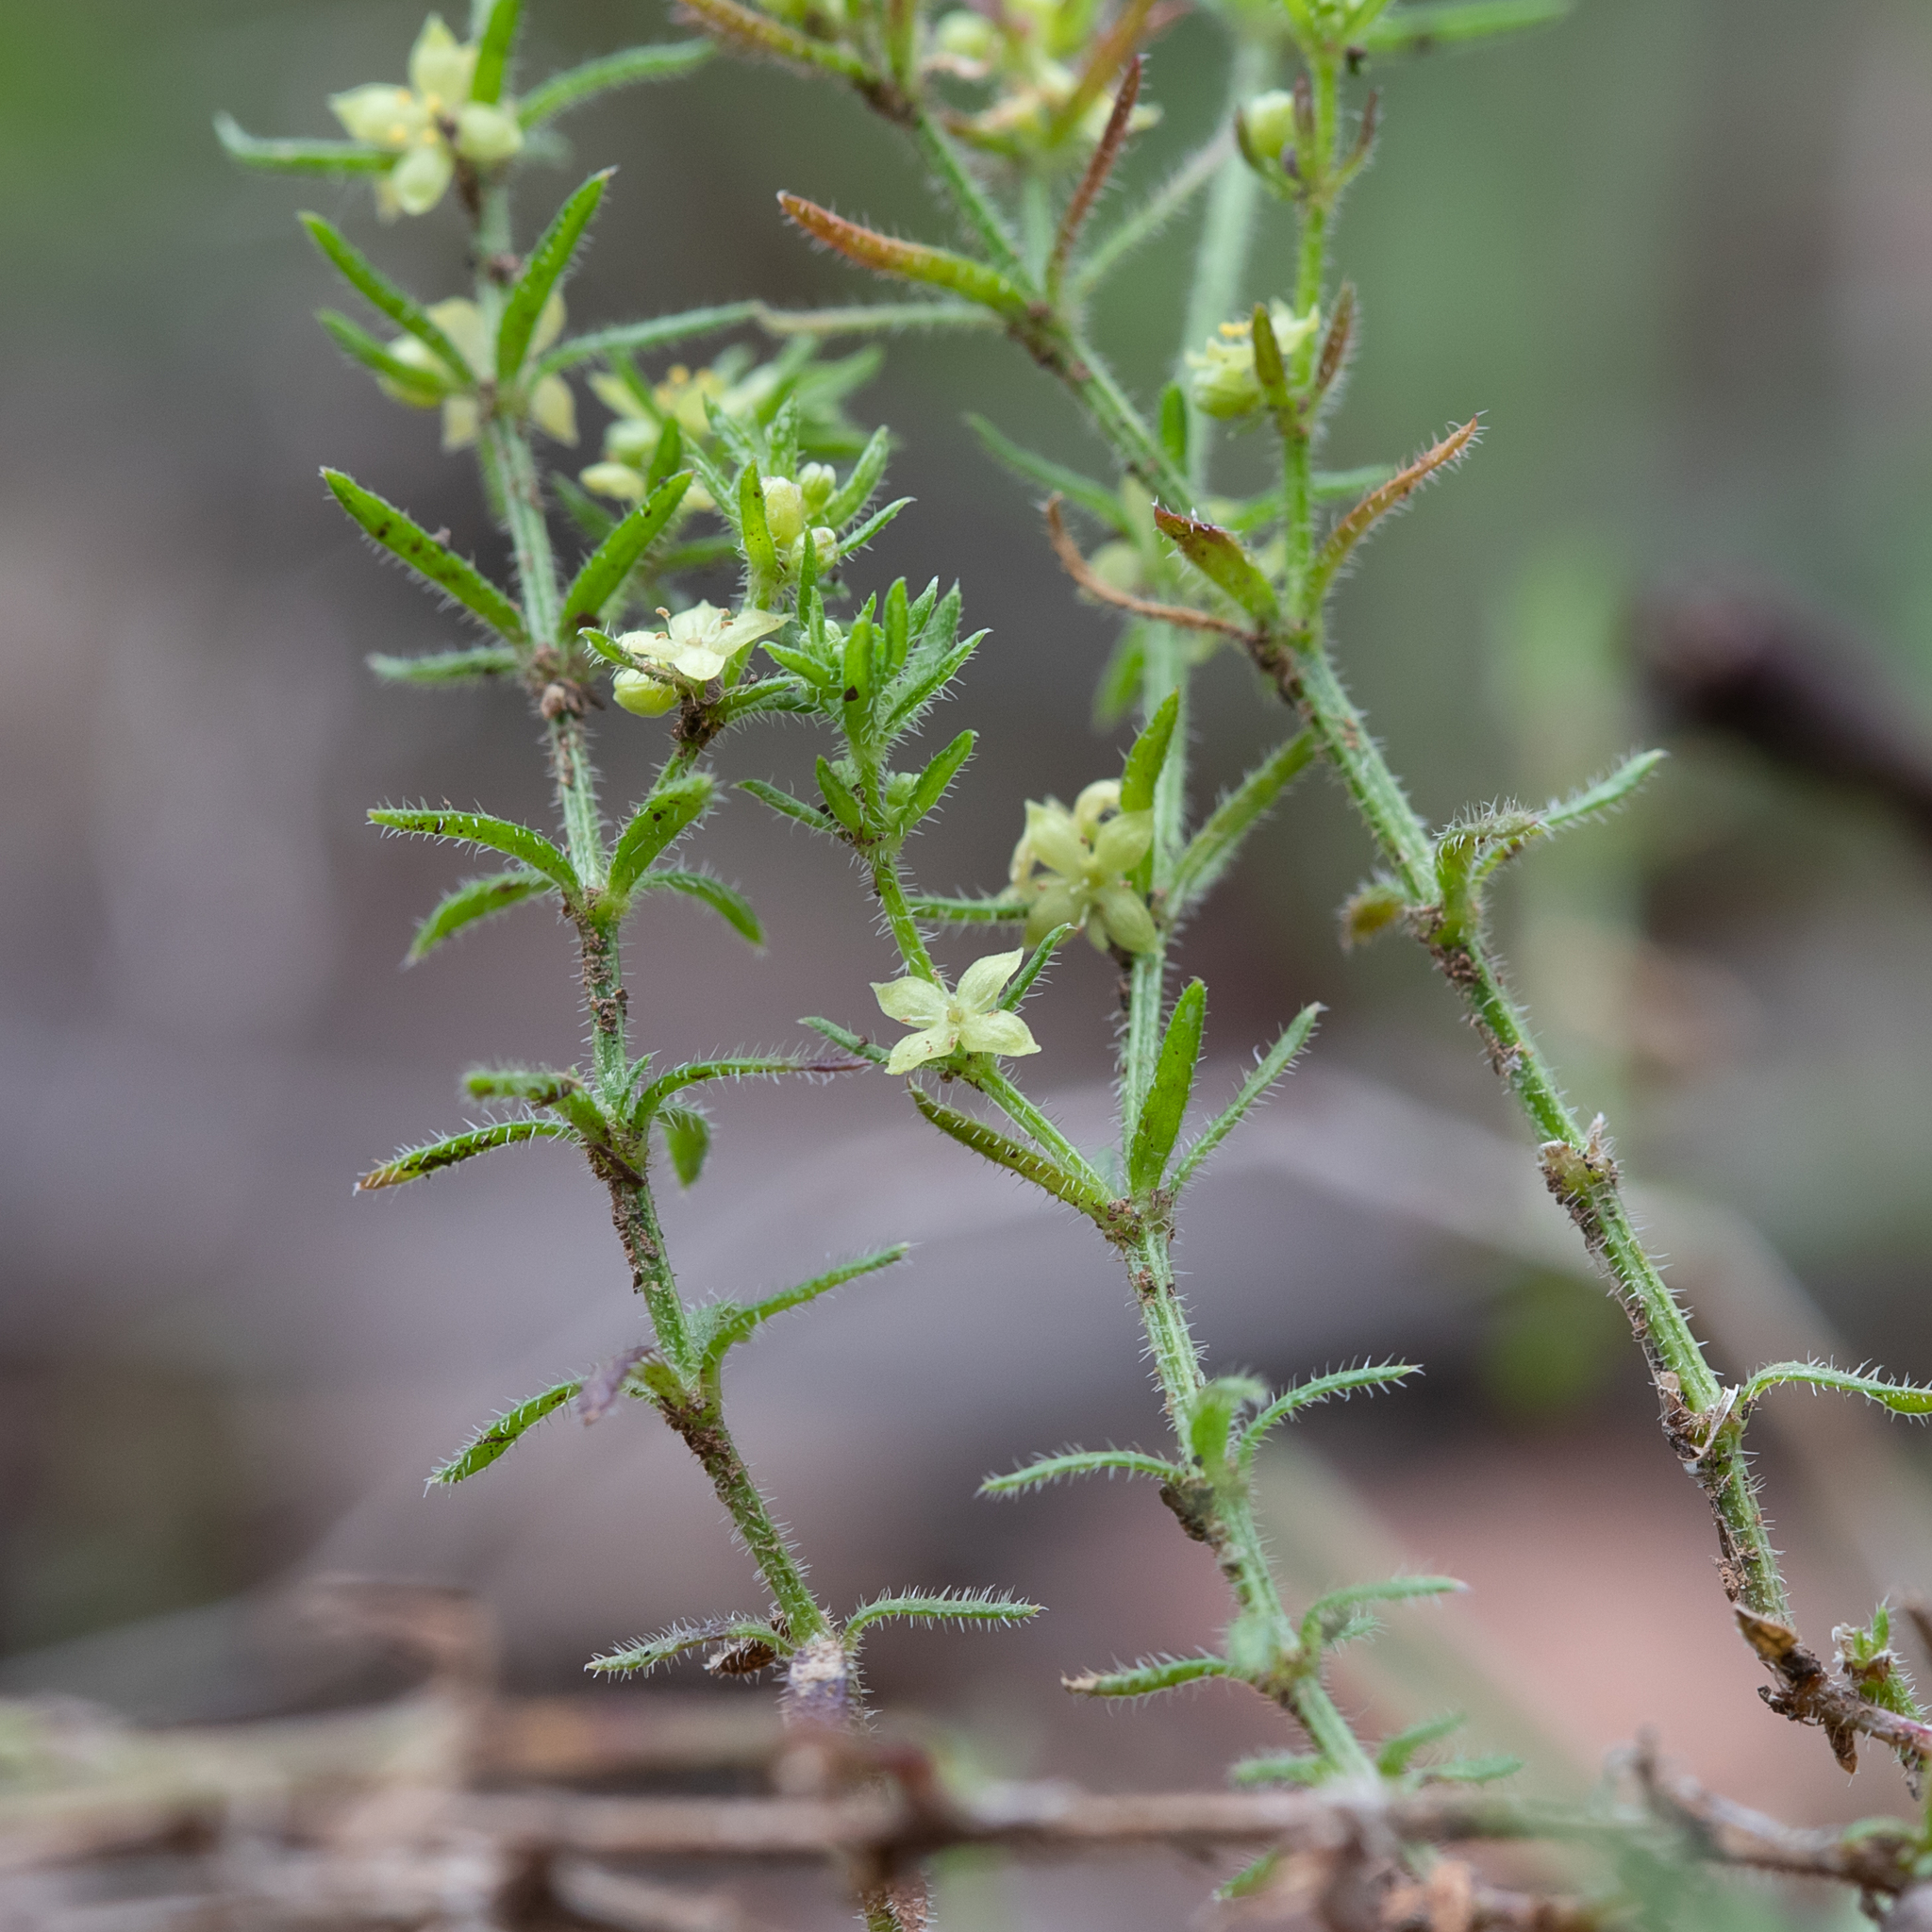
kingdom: Plantae
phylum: Tracheophyta
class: Magnoliopsida
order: Gentianales
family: Rubiaceae
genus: Galium
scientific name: Galium gaudichaudii
